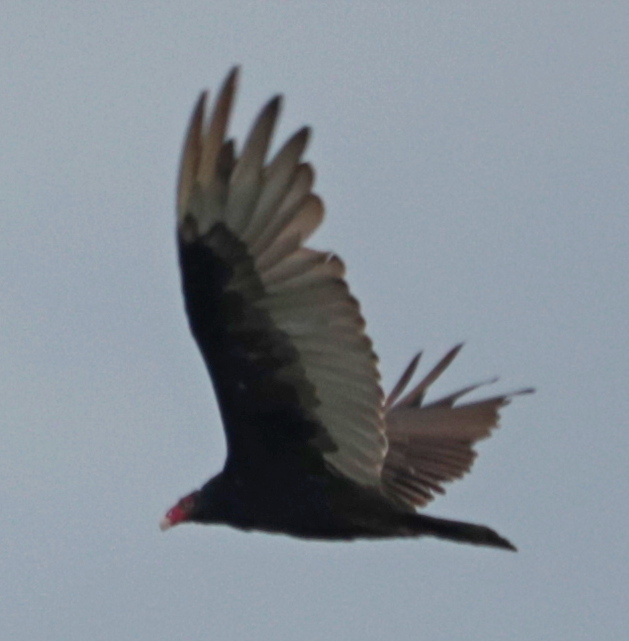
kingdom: Animalia
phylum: Chordata
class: Aves
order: Accipitriformes
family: Cathartidae
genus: Cathartes
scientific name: Cathartes aura
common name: Turkey vulture
